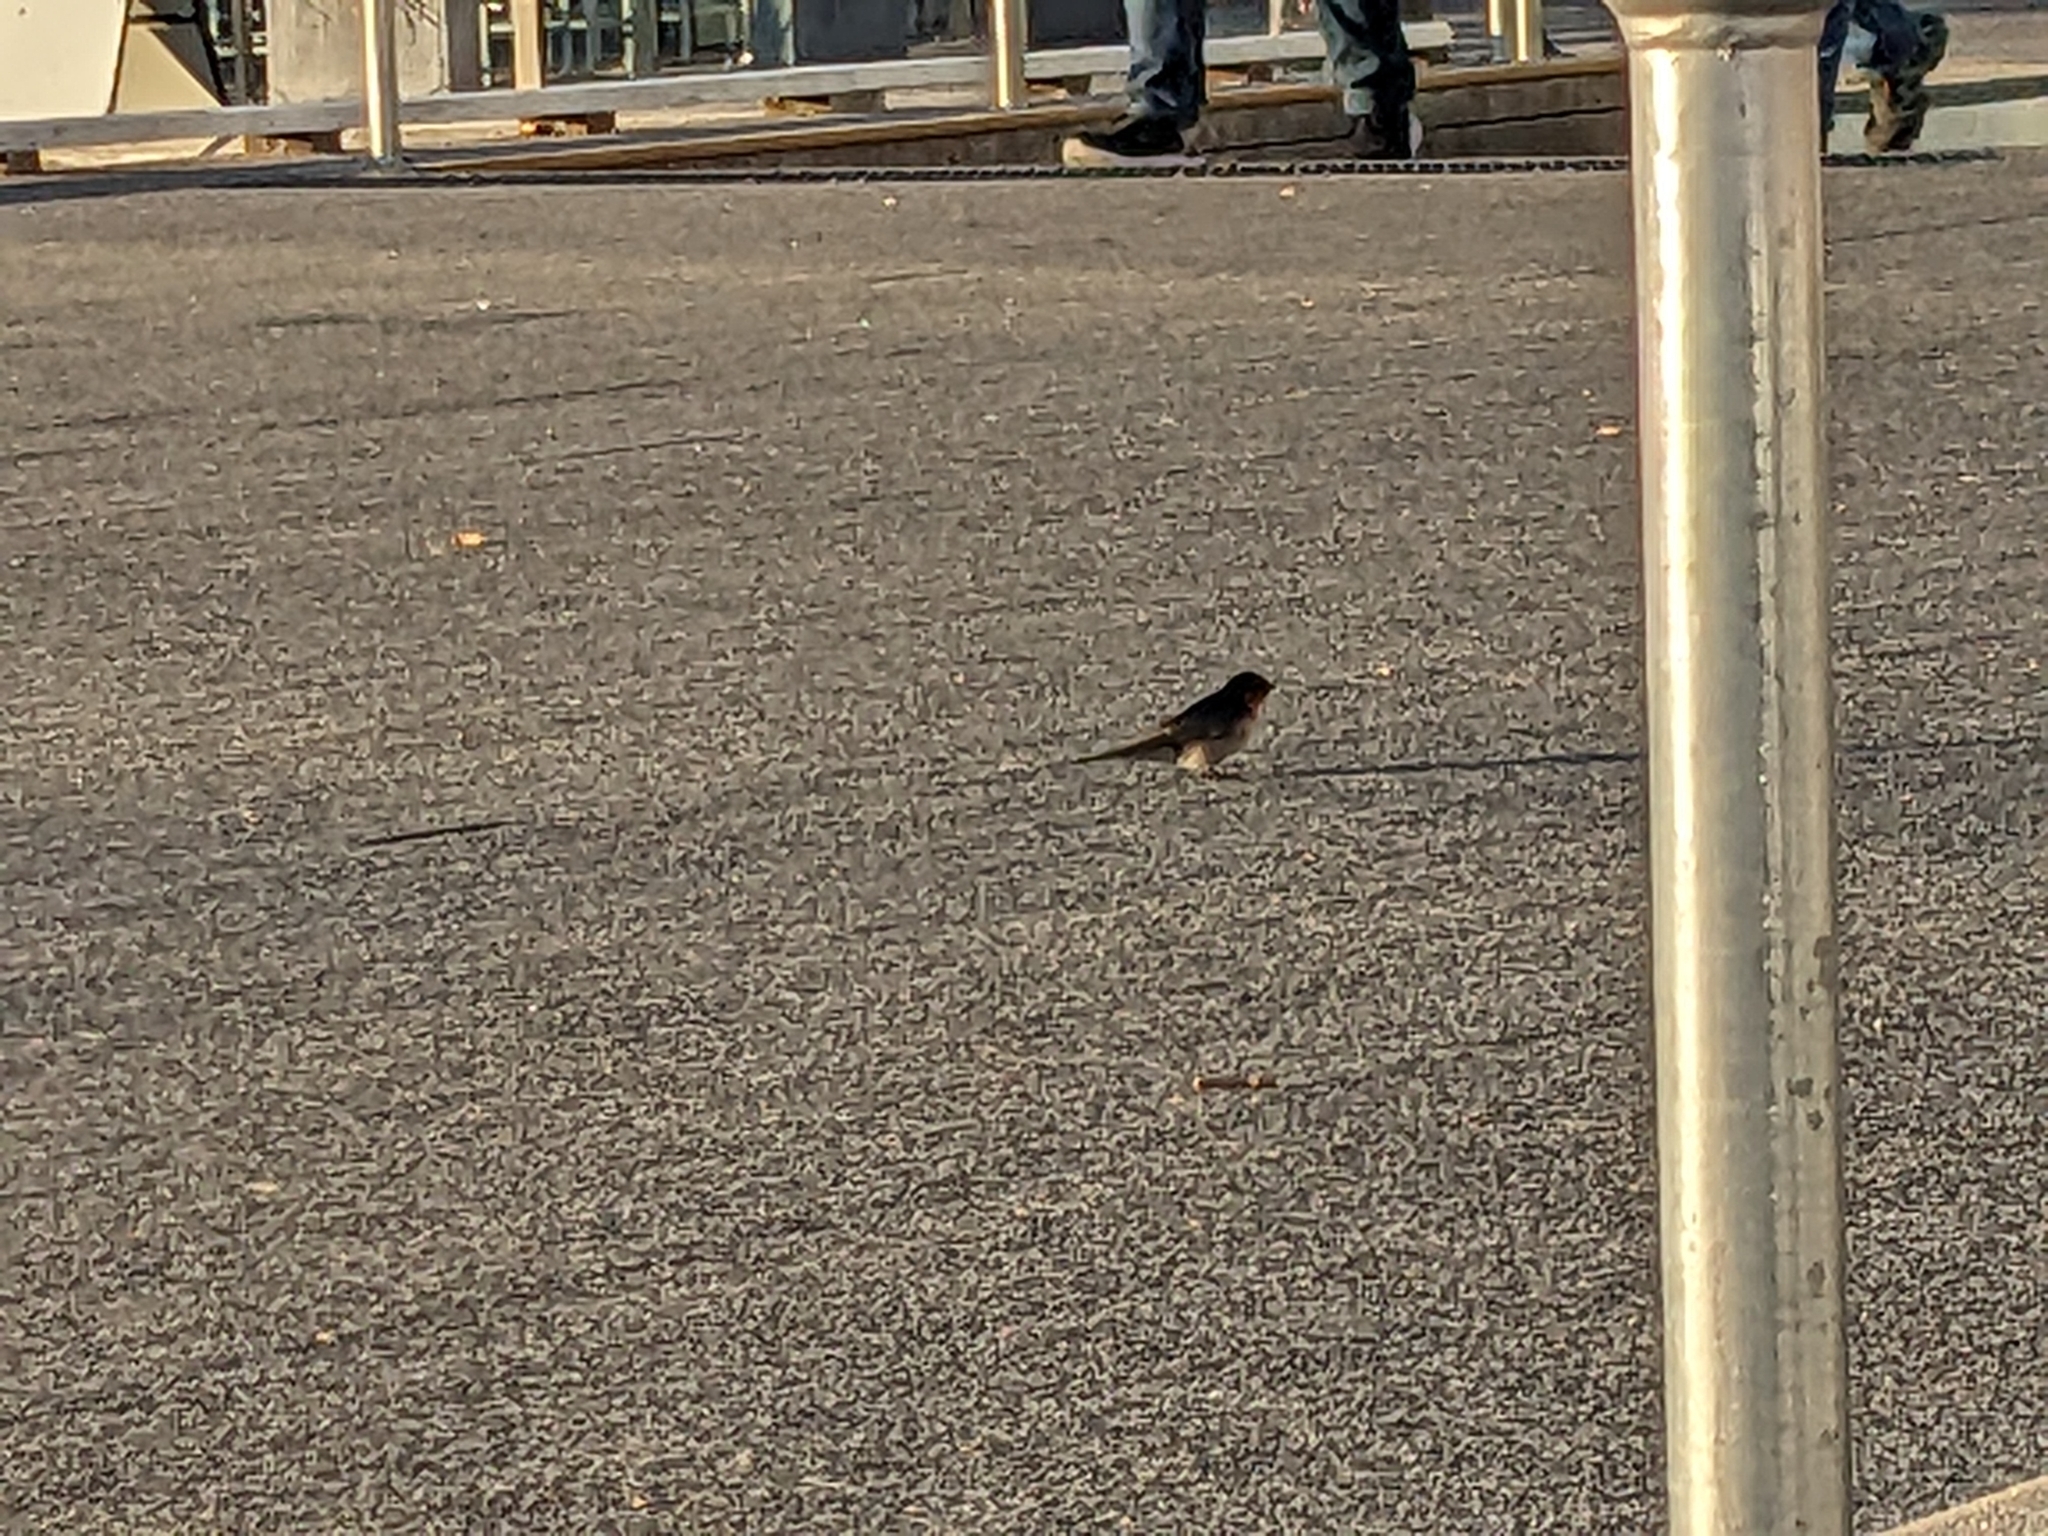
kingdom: Animalia
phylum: Chordata
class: Aves
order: Passeriformes
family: Hirundinidae
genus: Hirundo
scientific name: Hirundo neoxena
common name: Welcome swallow
